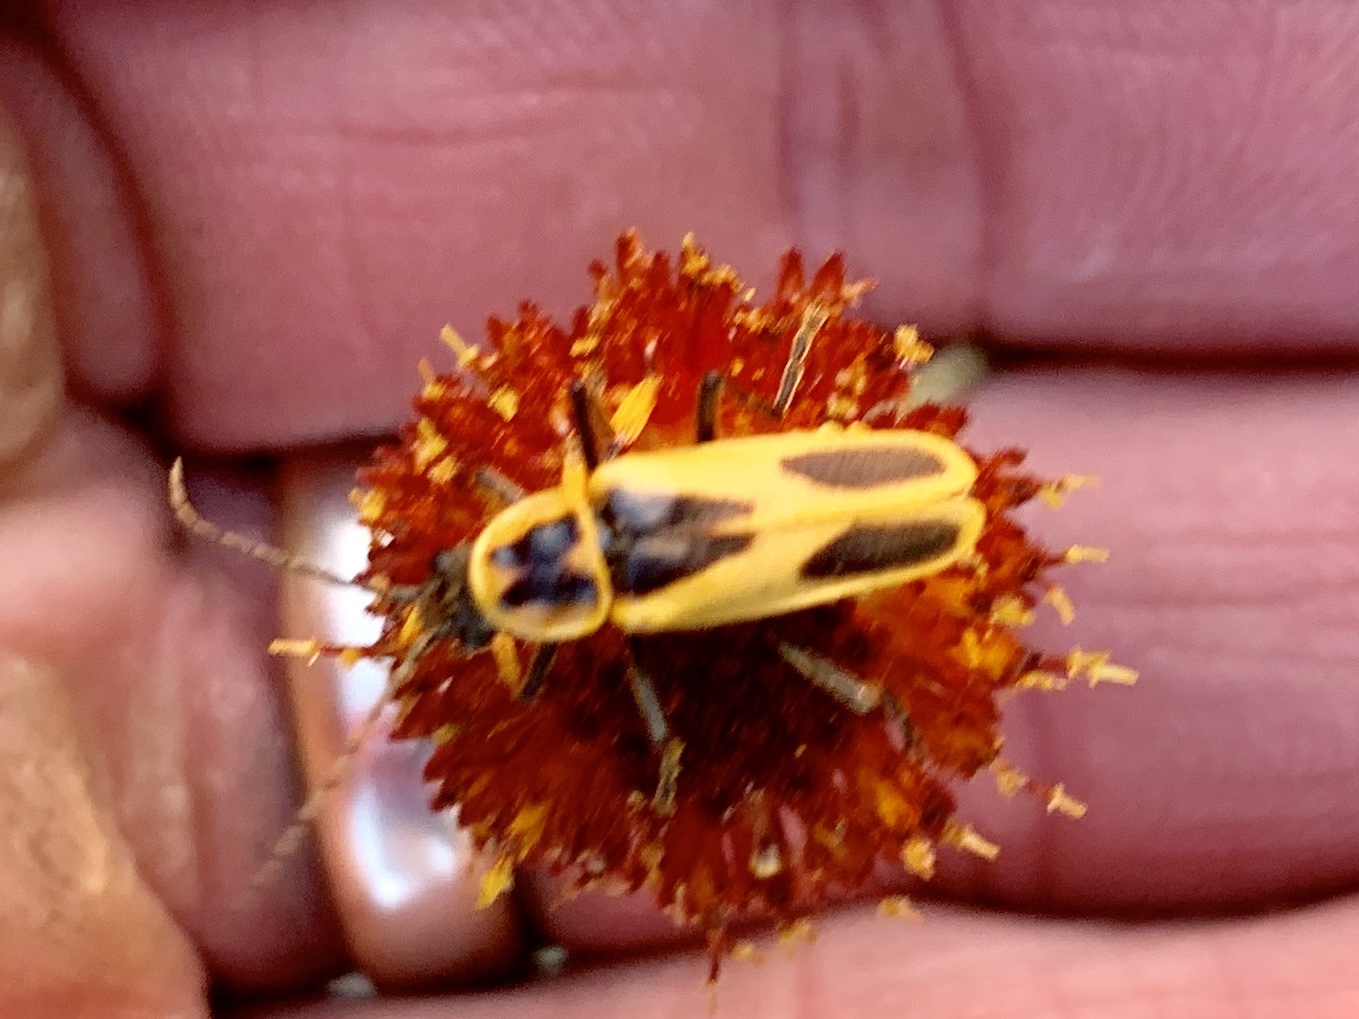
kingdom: Animalia
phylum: Arthropoda
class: Insecta
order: Coleoptera
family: Cantharidae
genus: Chauliognathus
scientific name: Chauliognathus scutellaris
